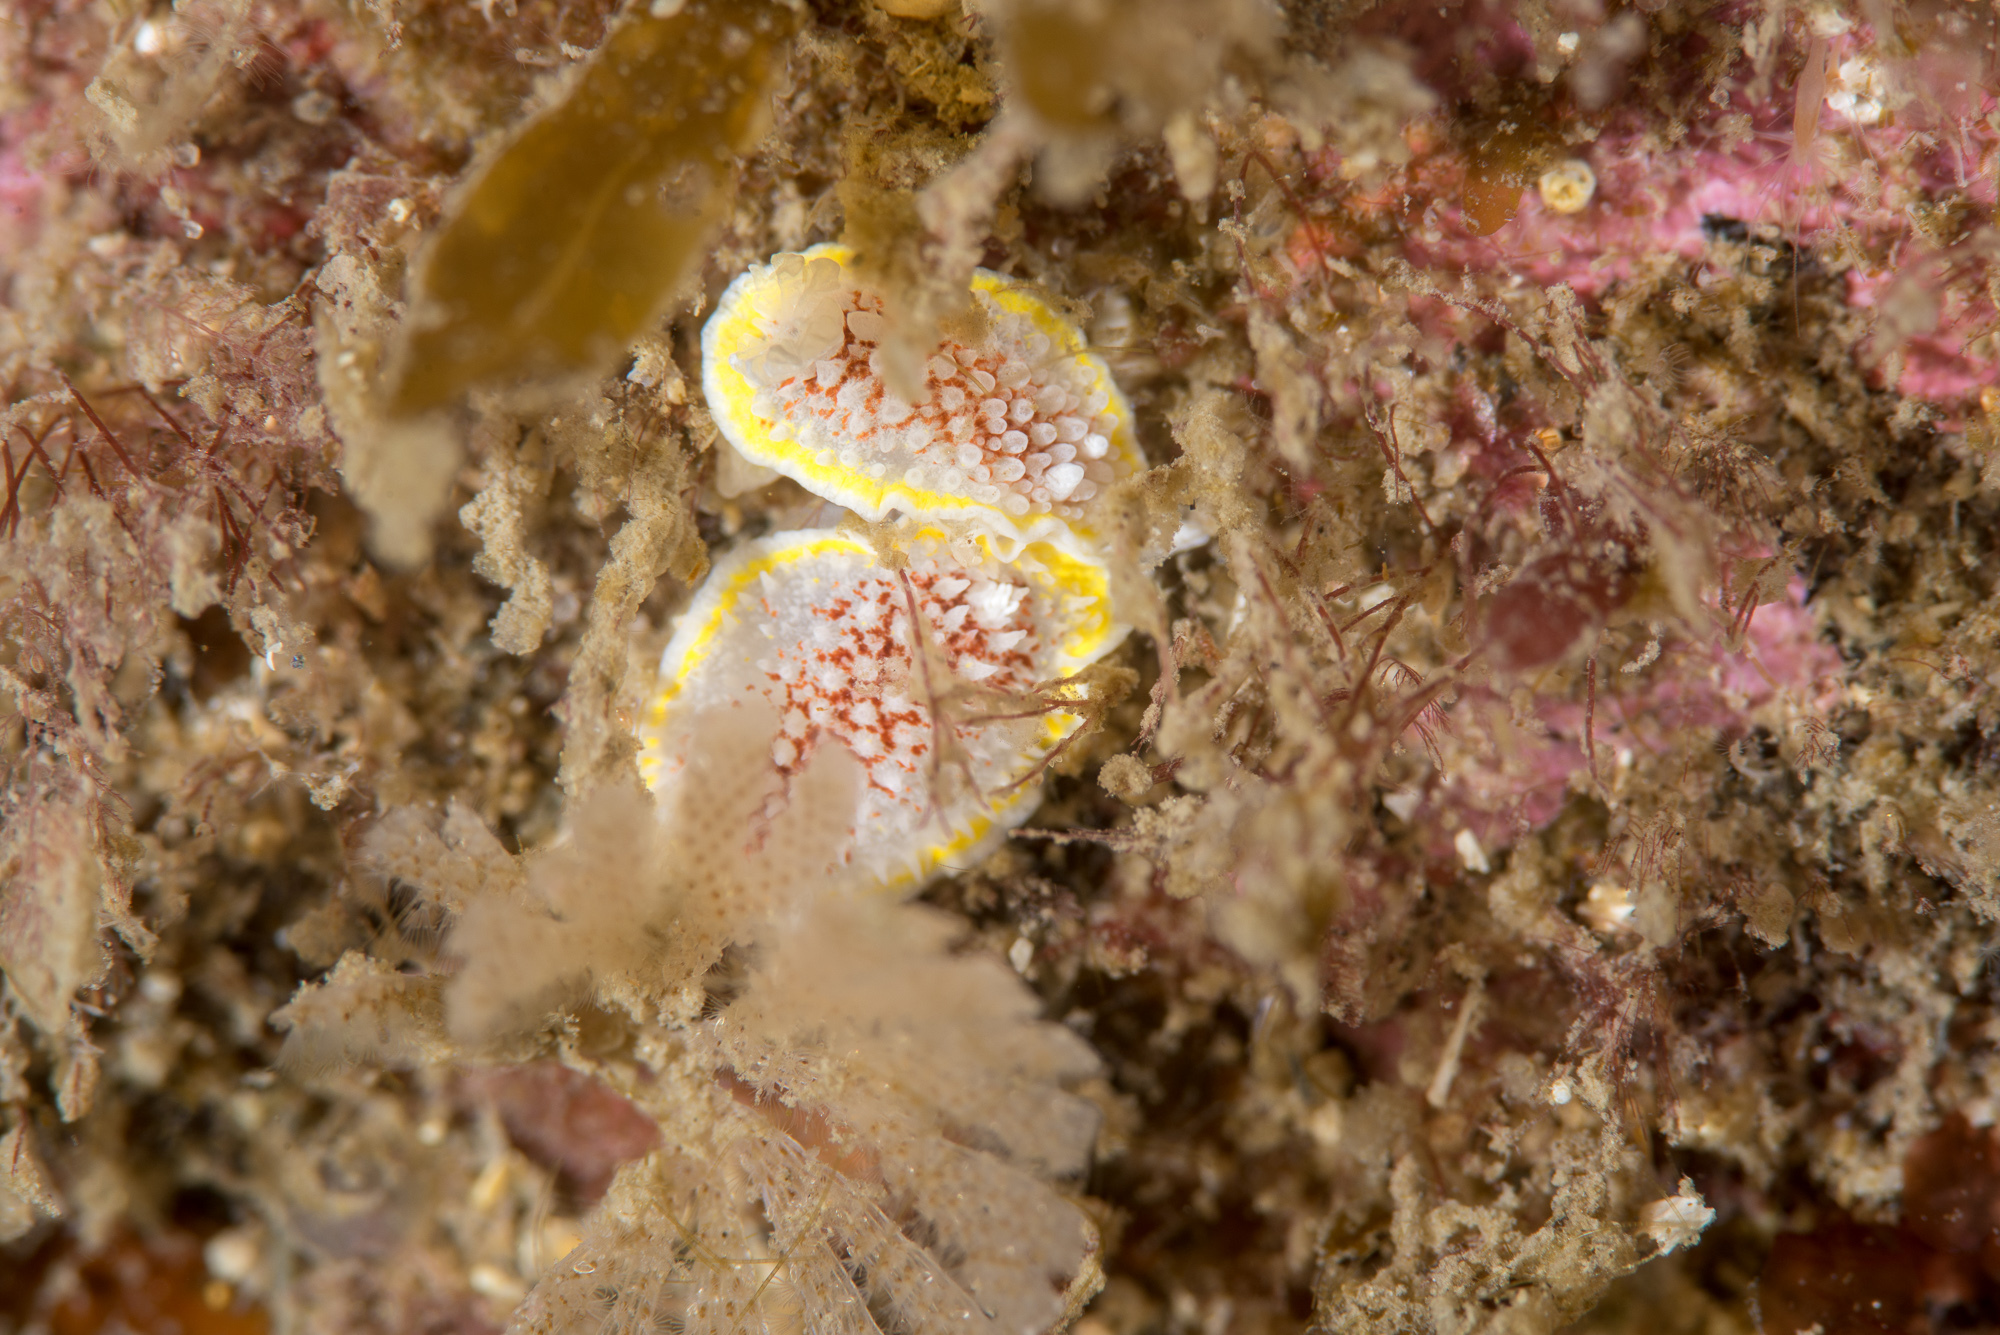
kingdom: Animalia
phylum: Mollusca
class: Gastropoda
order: Nudibranchia
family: Calycidorididae
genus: Diaphorodoris
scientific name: Diaphorodoris luteocincta
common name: Fried egg nudibranch
